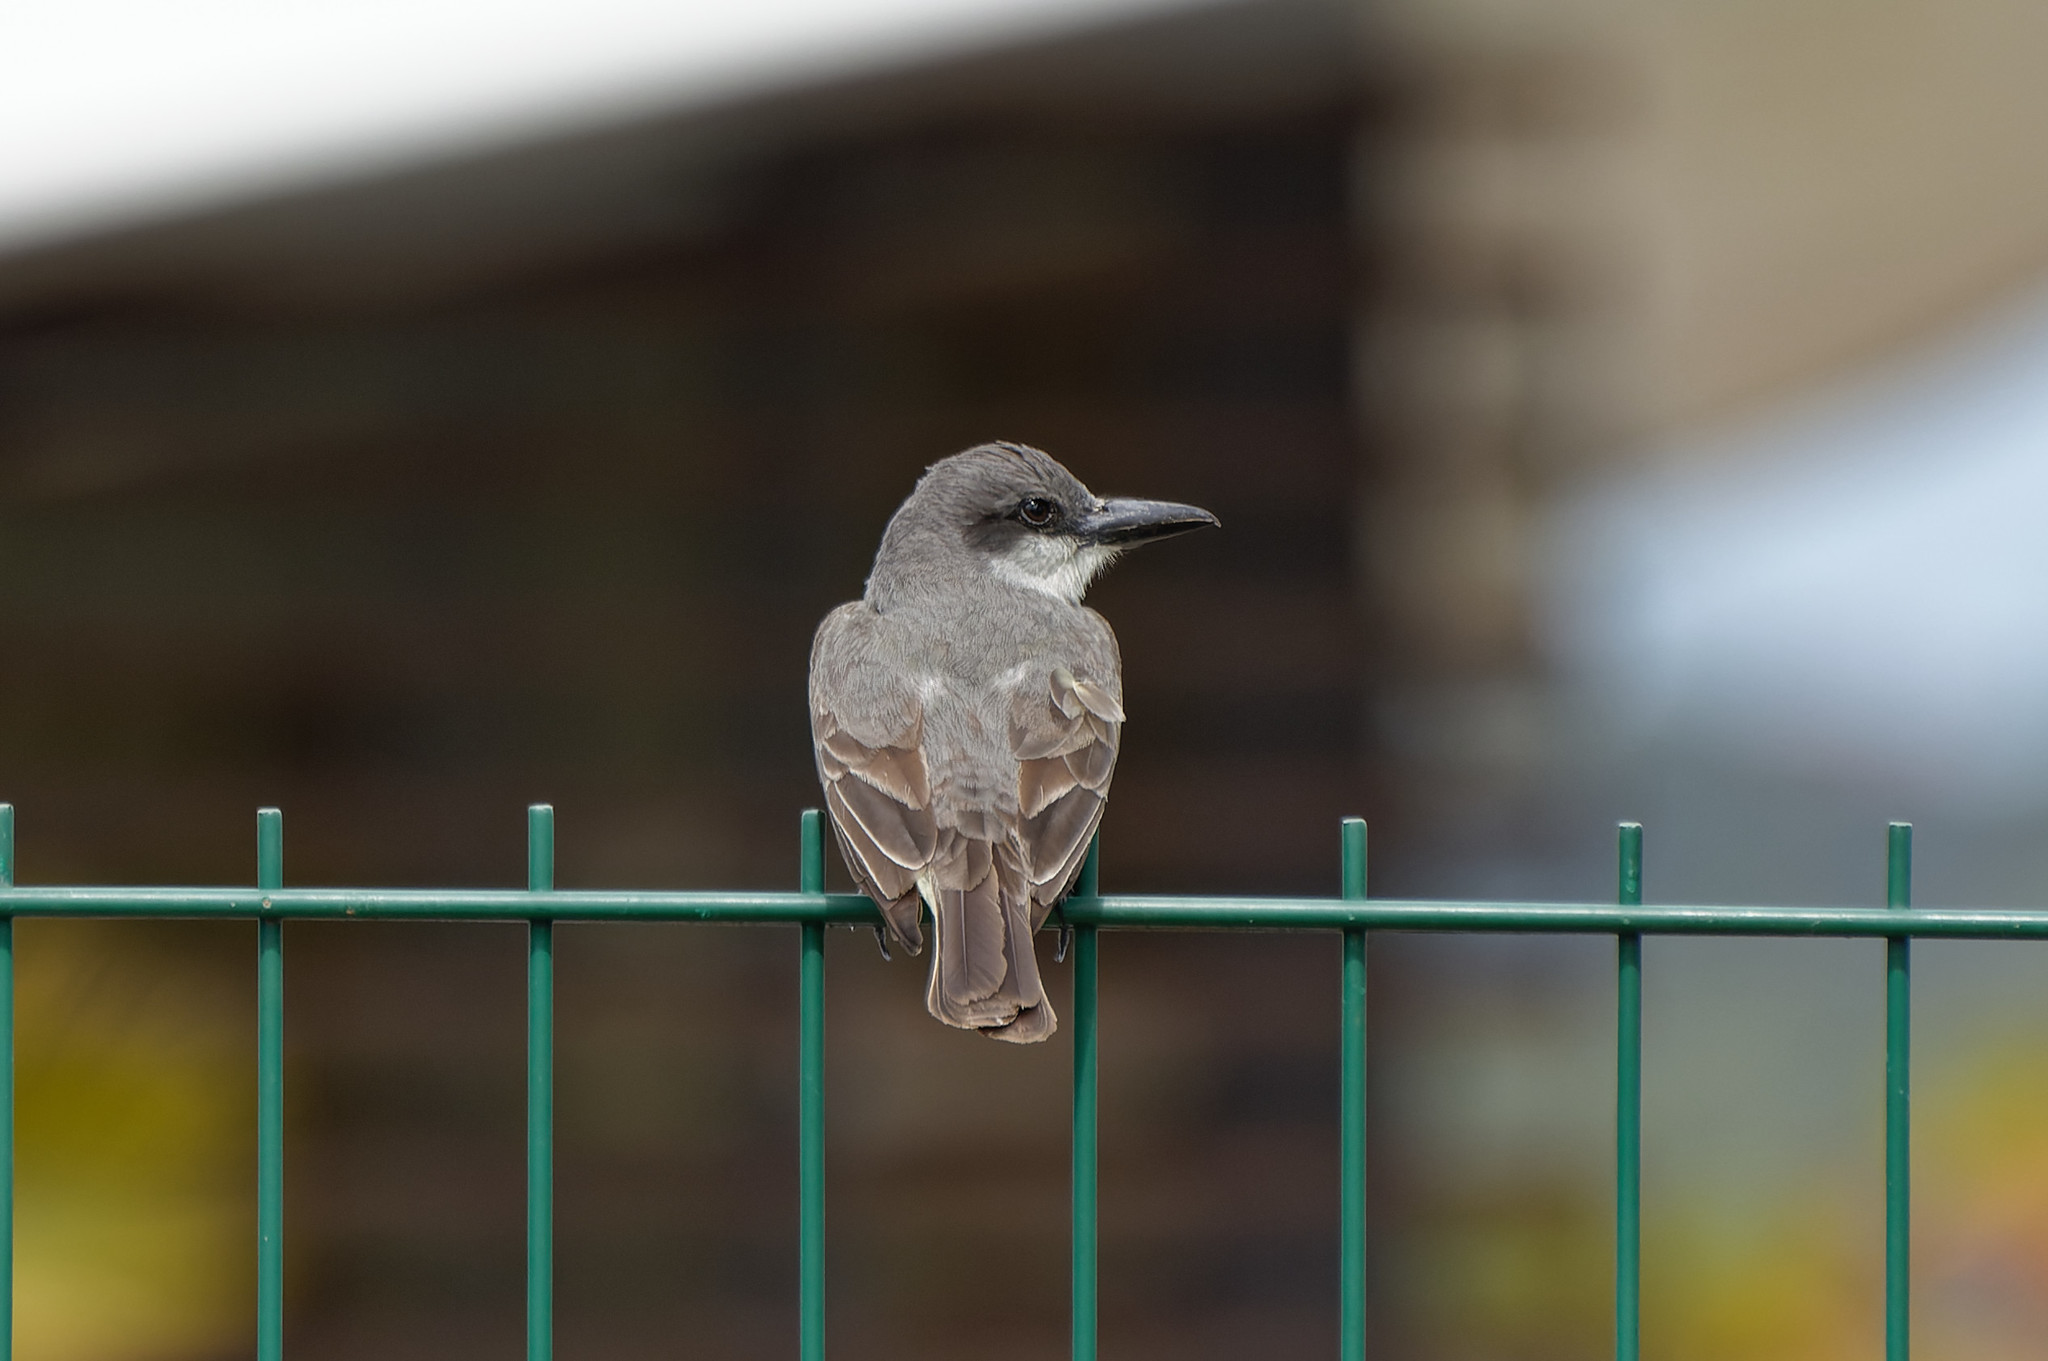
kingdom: Animalia
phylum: Chordata
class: Aves
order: Passeriformes
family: Tyrannidae
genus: Tyrannus
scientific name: Tyrannus dominicensis
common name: Gray kingbird
